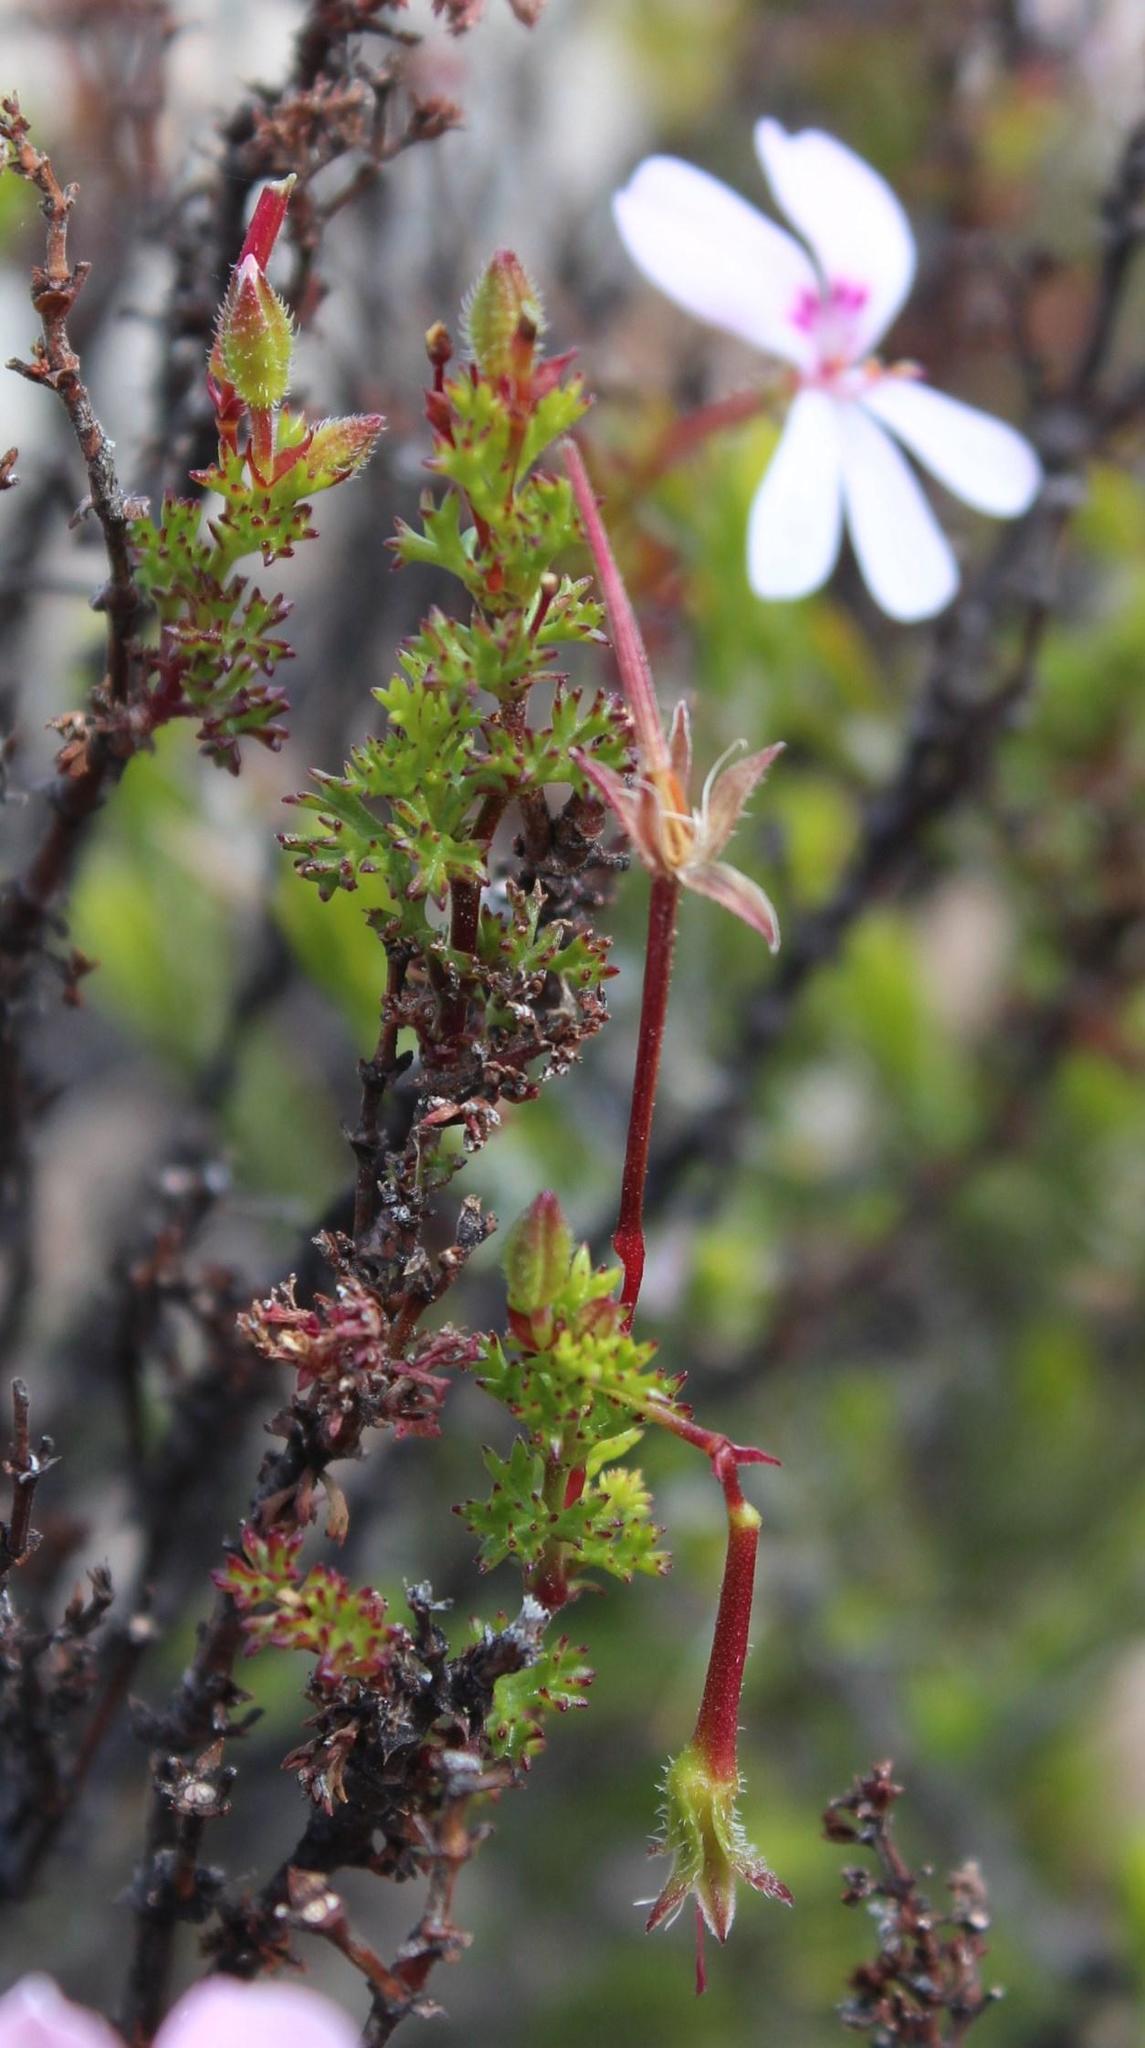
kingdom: Plantae
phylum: Tracheophyta
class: Magnoliopsida
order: Geraniales
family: Geraniaceae
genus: Pelargonium
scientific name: Pelargonium fruticosum
